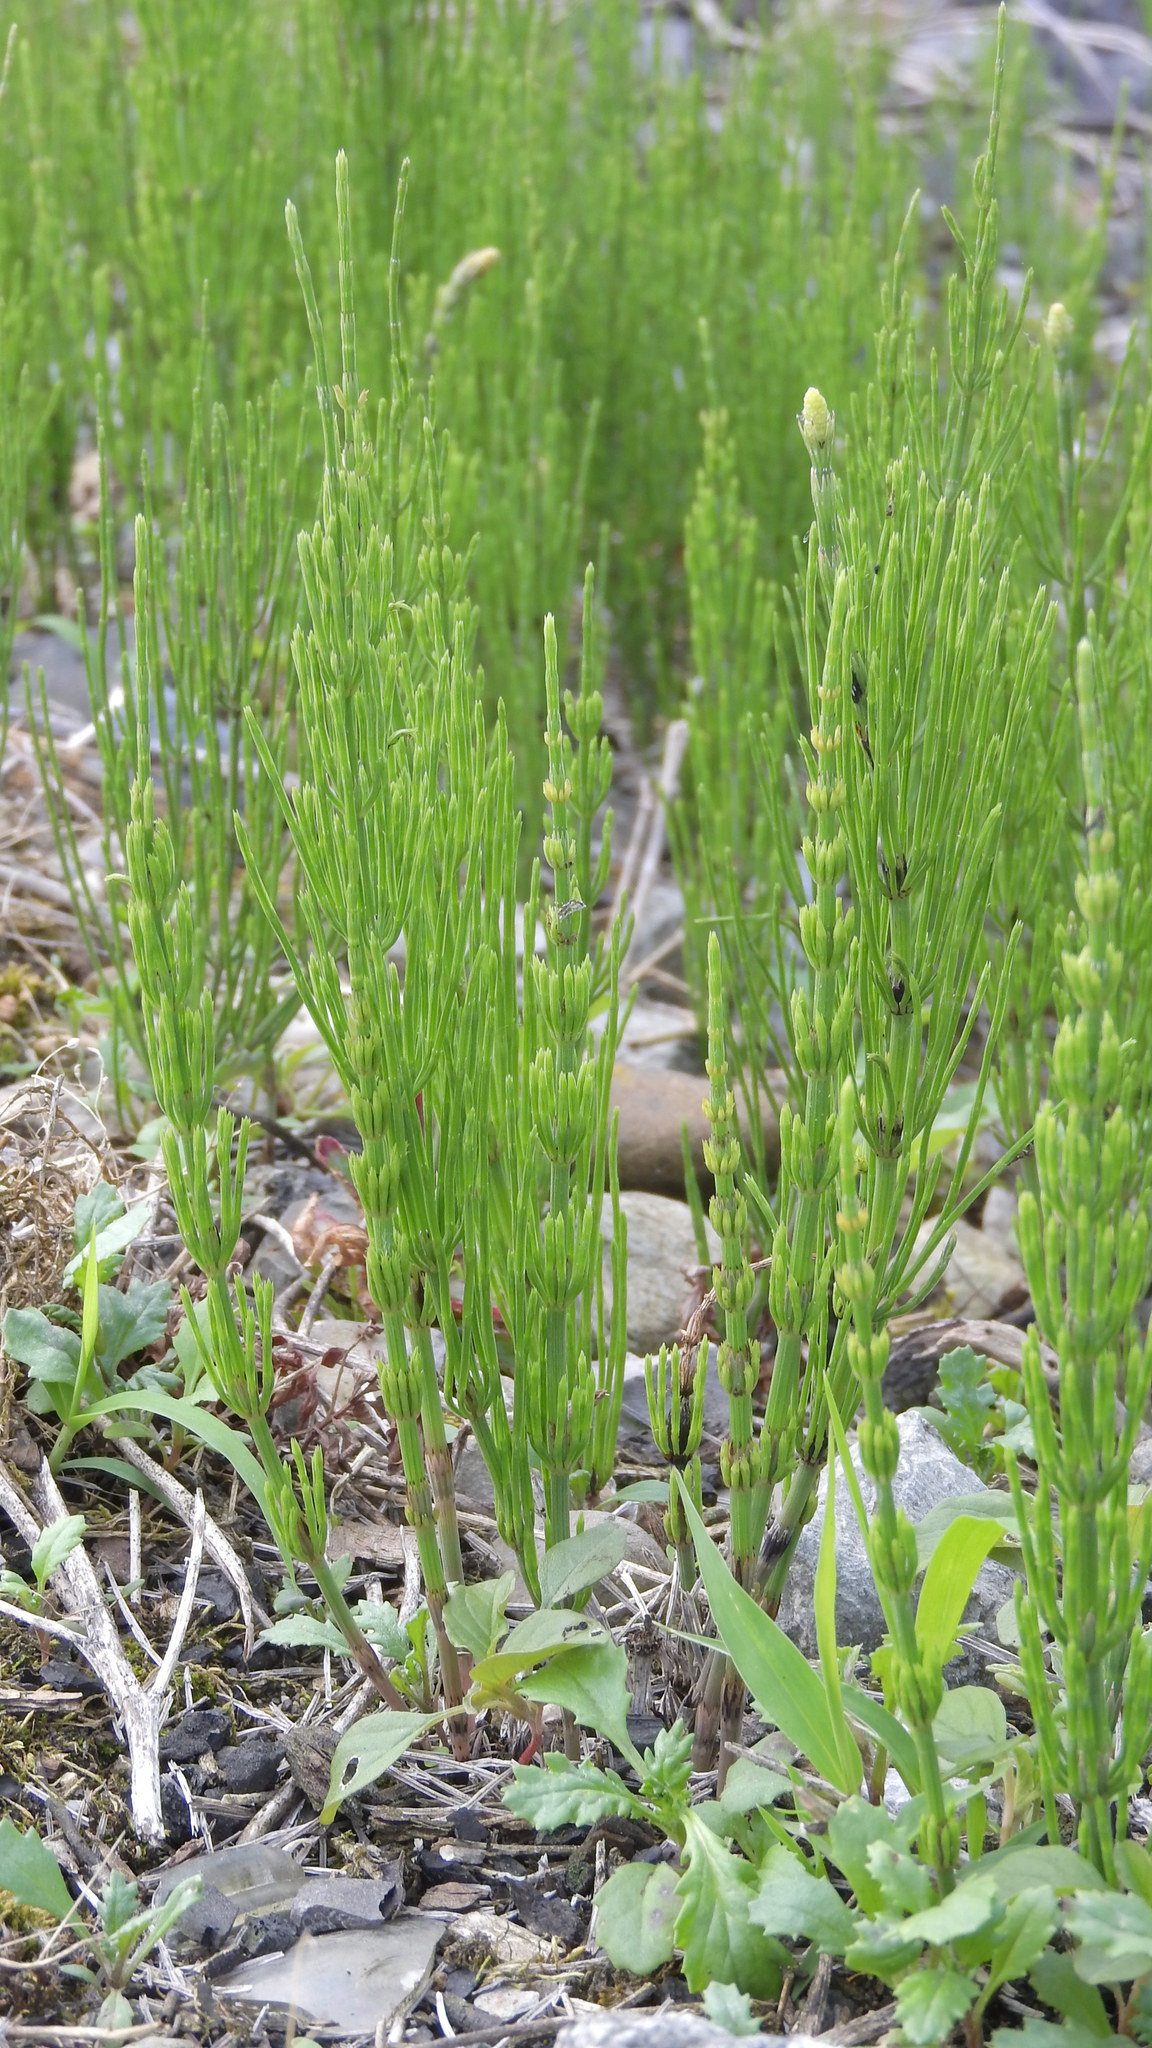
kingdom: Plantae
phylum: Tracheophyta
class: Polypodiopsida
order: Equisetales
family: Equisetaceae
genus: Equisetum
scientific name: Equisetum arvense
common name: Field horsetail
